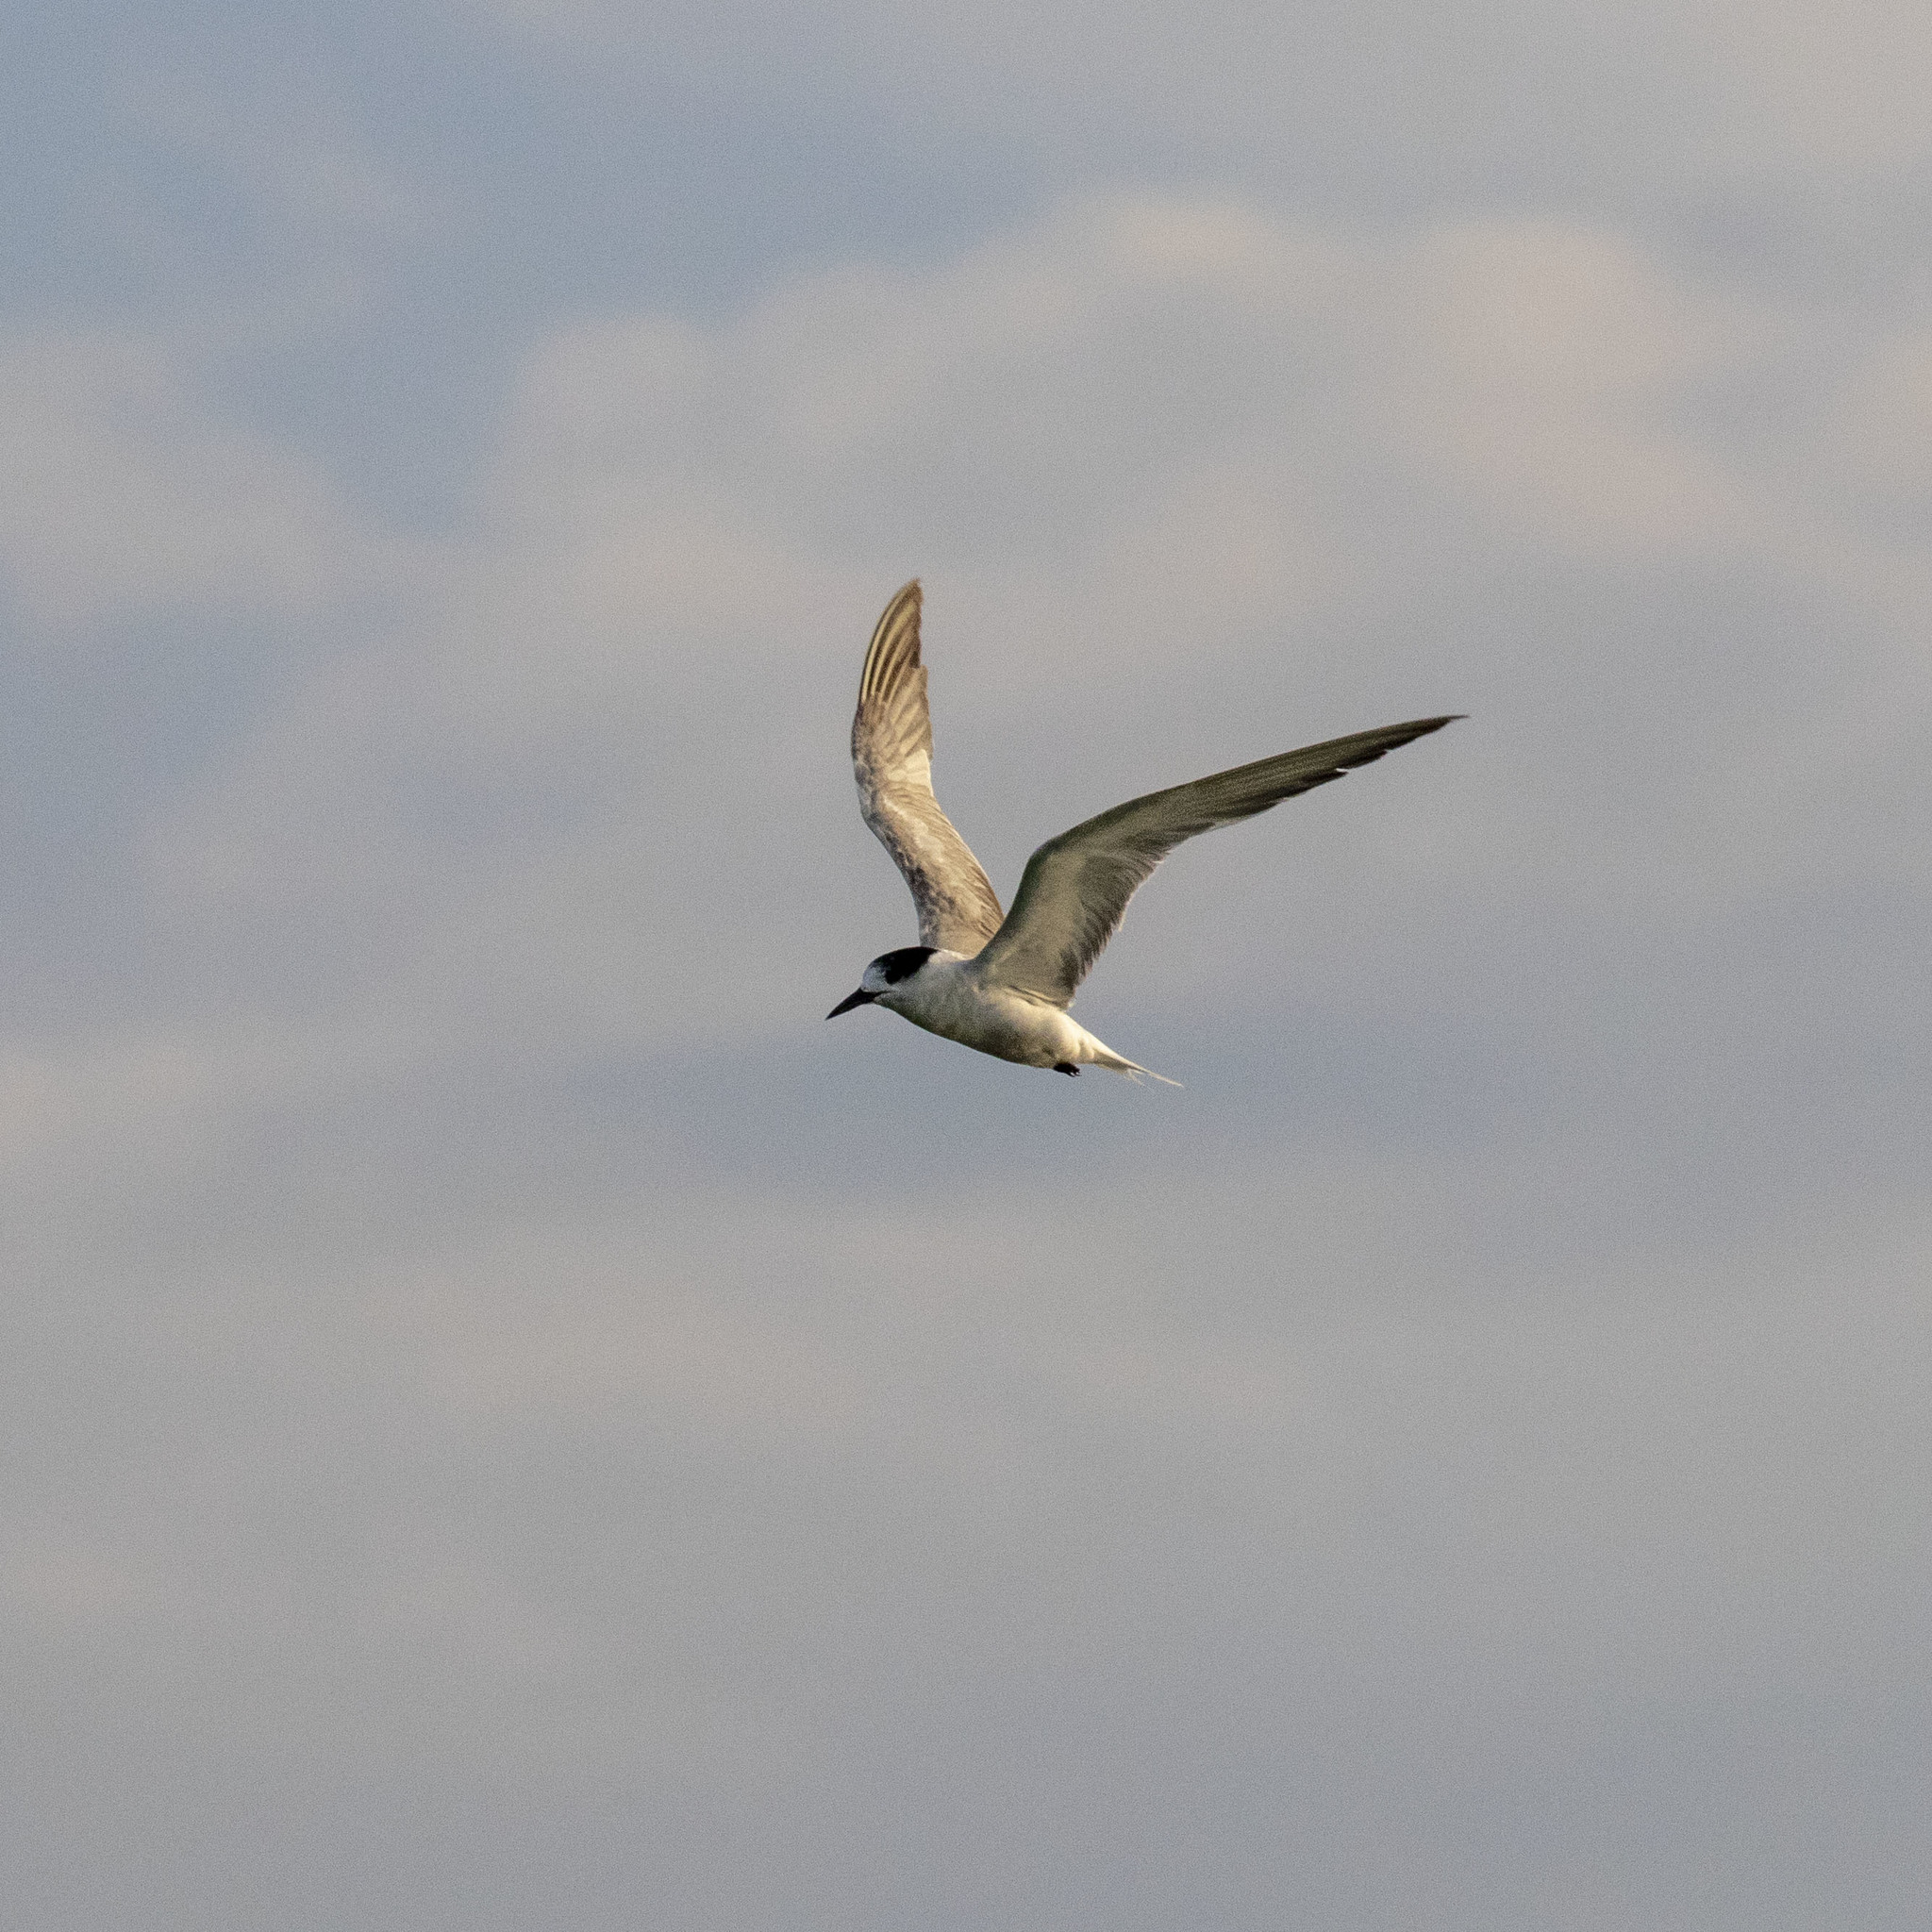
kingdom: Animalia
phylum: Chordata
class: Aves
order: Charadriiformes
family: Laridae
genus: Sterna
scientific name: Sterna hirundo
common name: Common tern
